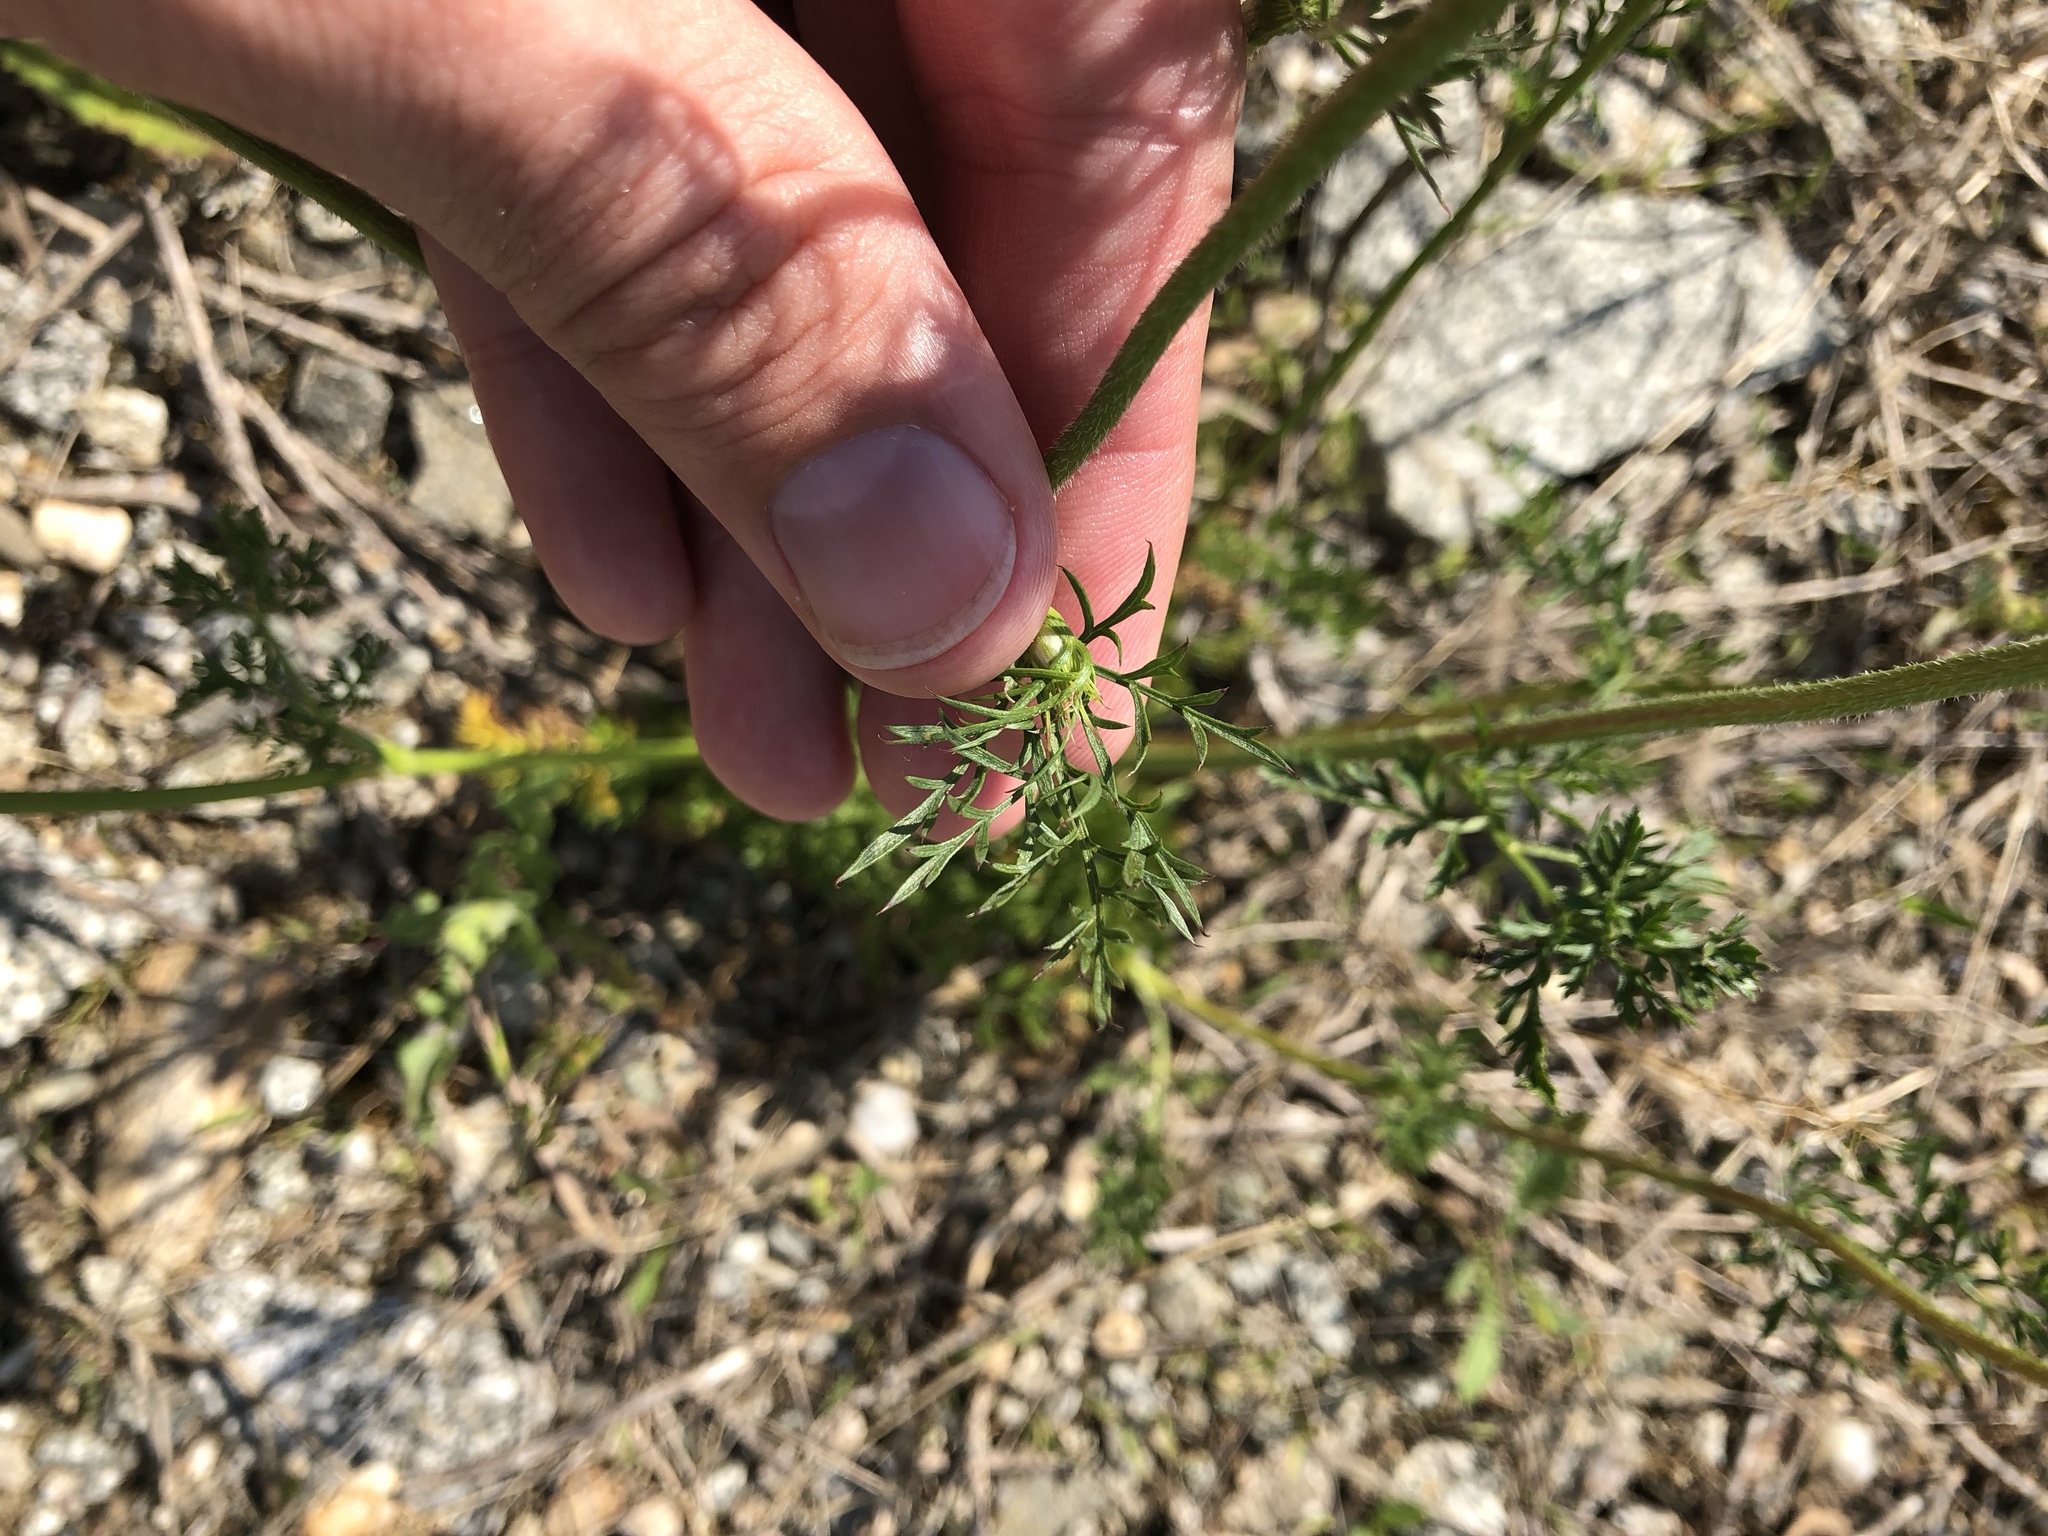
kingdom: Plantae
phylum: Tracheophyta
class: Magnoliopsida
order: Apiales
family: Apiaceae
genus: Daucus
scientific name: Daucus carota
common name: Wild carrot
